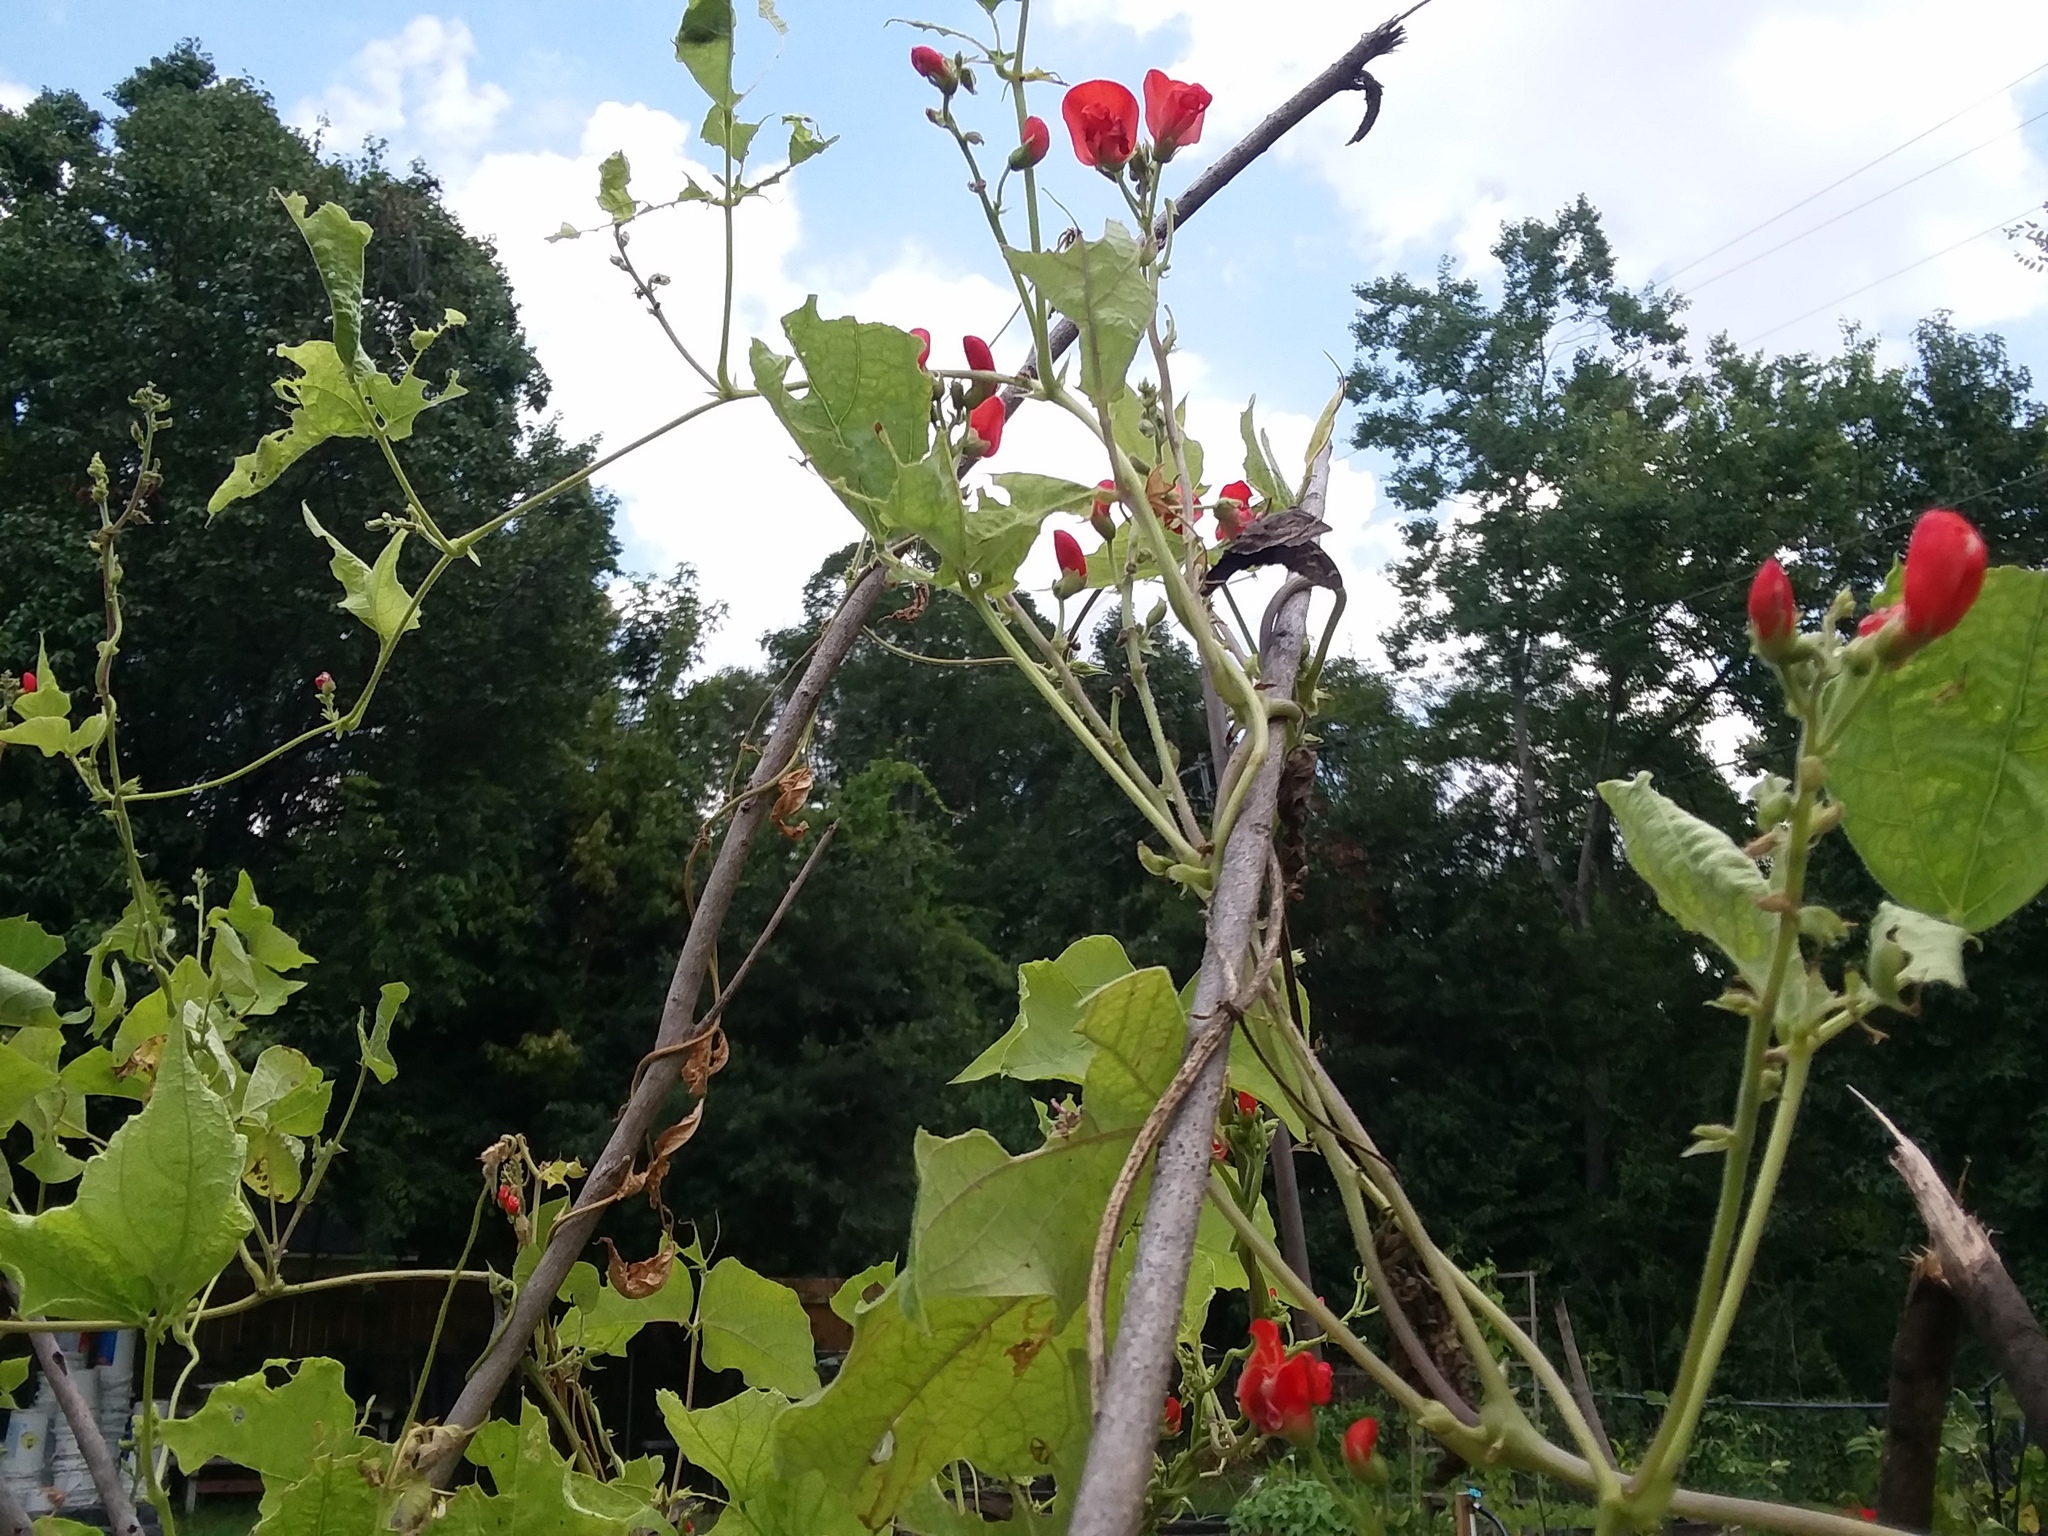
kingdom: Animalia
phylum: Arthropoda
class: Insecta
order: Lepidoptera
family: Hesperiidae
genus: Urbanus
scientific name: Urbanus proteus
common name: Long-tailed skipper
